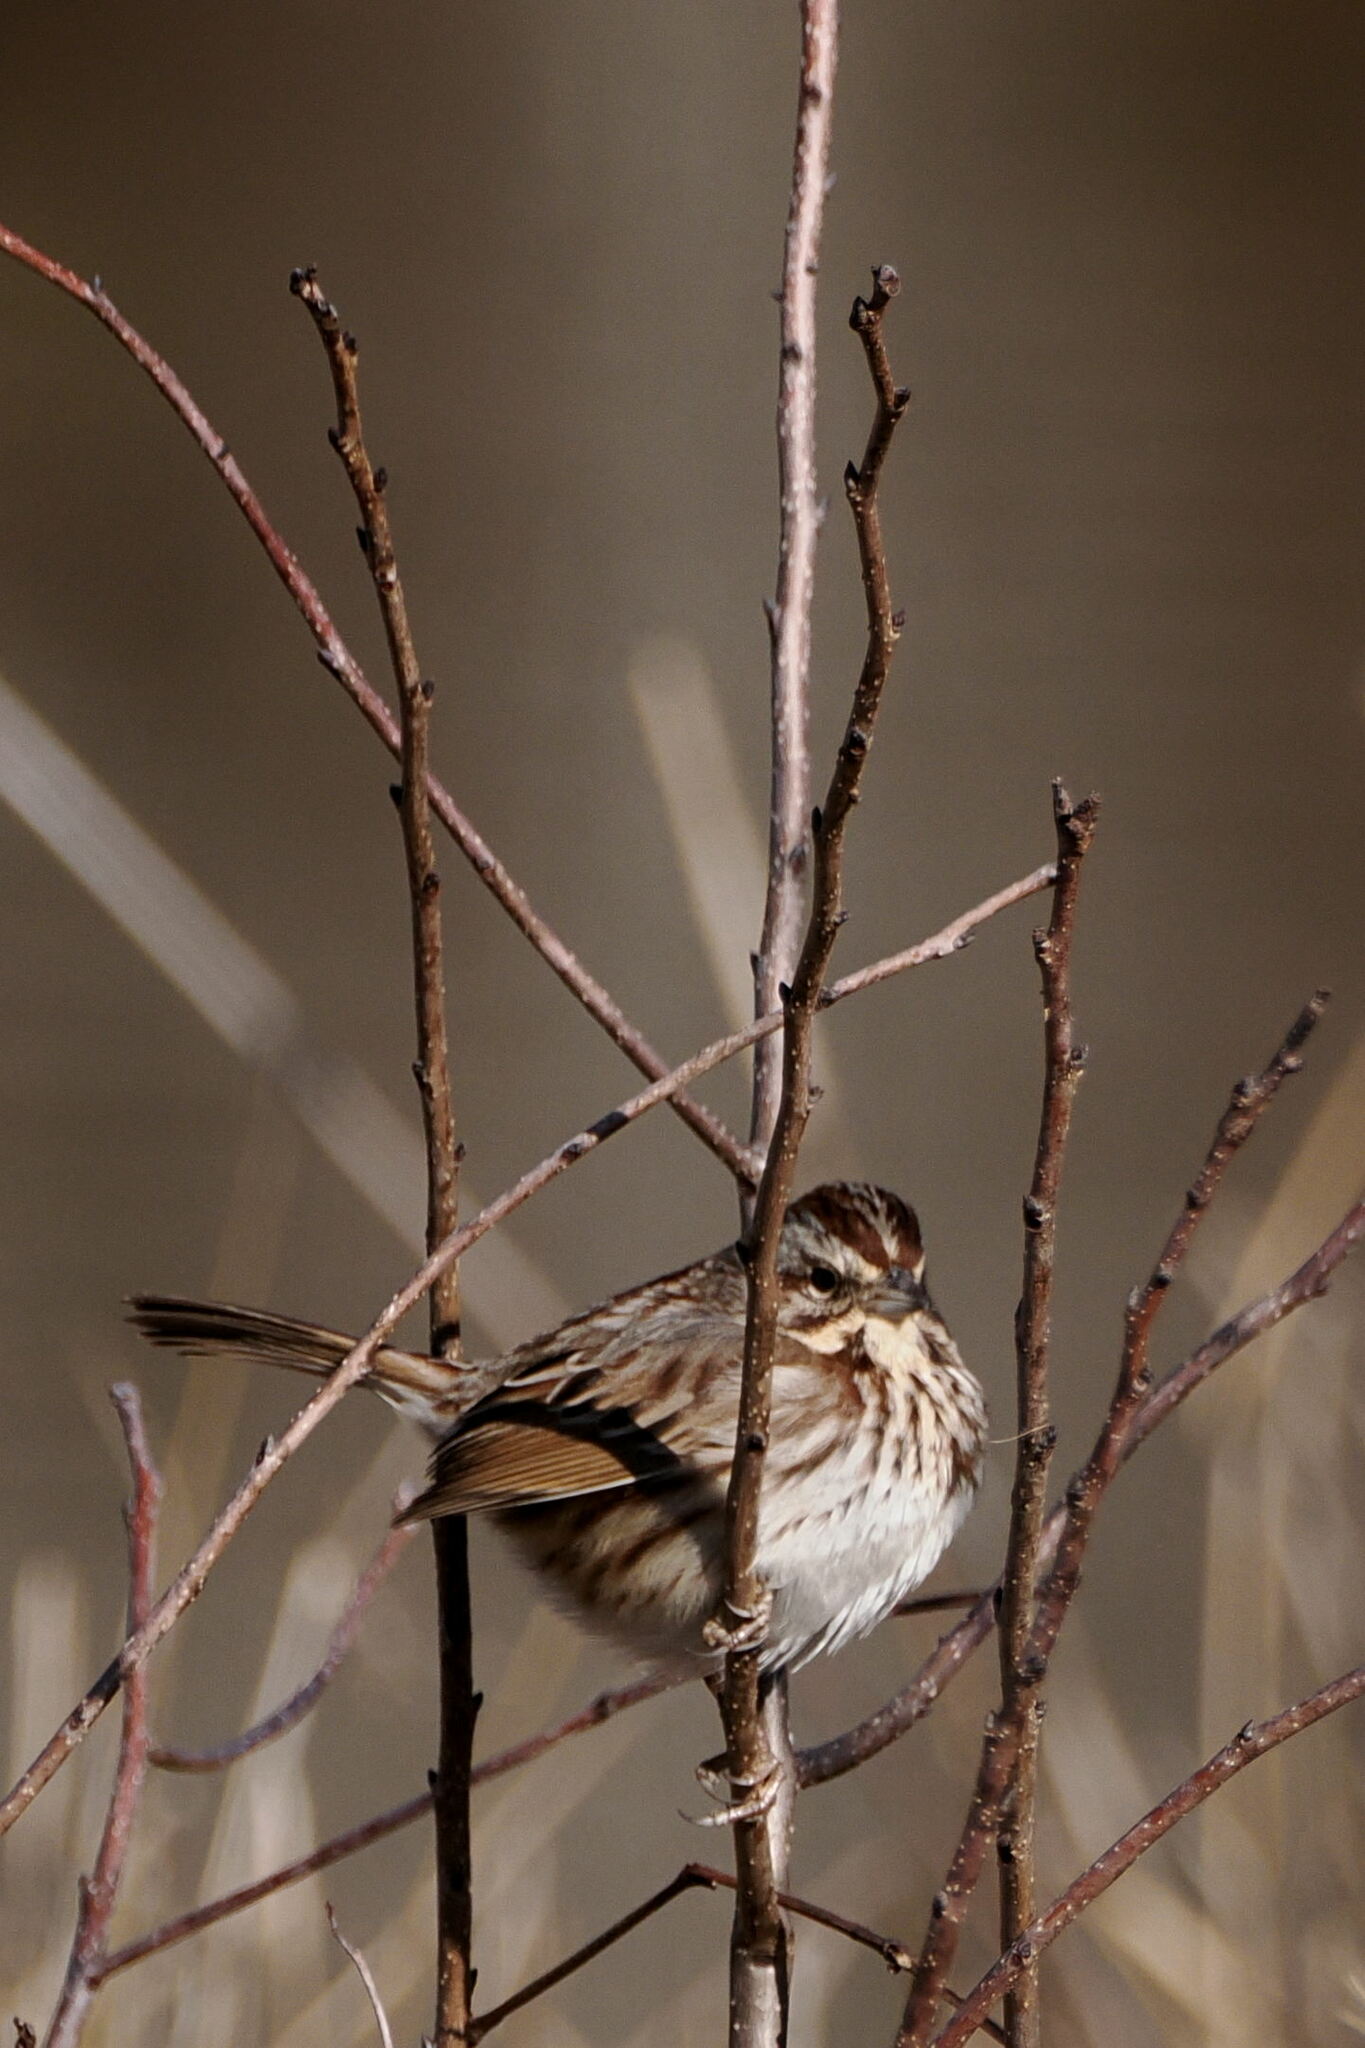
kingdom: Animalia
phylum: Chordata
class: Aves
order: Passeriformes
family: Passerellidae
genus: Melospiza
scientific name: Melospiza melodia
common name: Song sparrow
